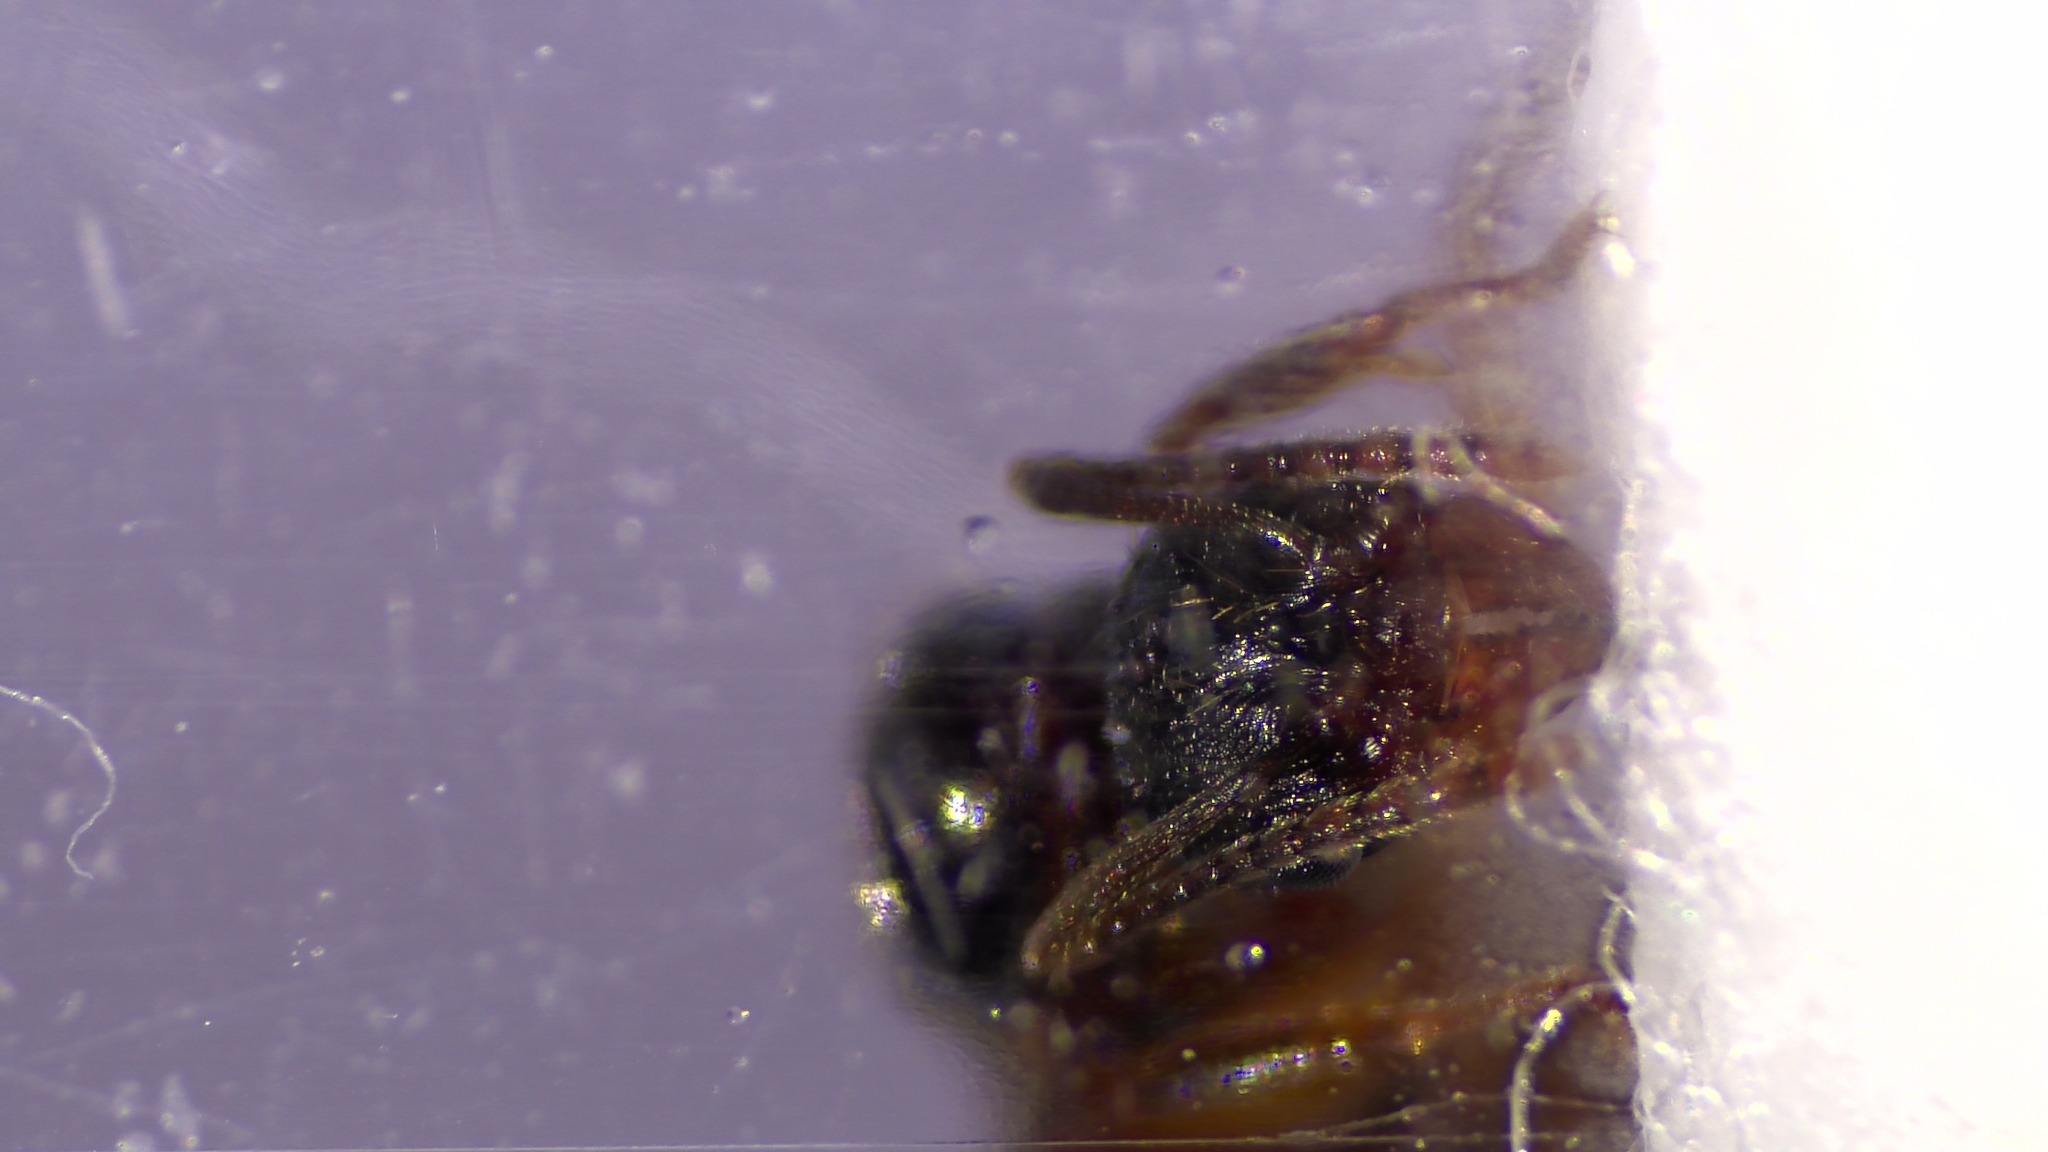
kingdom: Animalia
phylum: Arthropoda
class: Insecta
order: Hymenoptera
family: Formicidae
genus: Aphaenogaster
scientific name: Aphaenogaster picea
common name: Pitch-black collared ant
